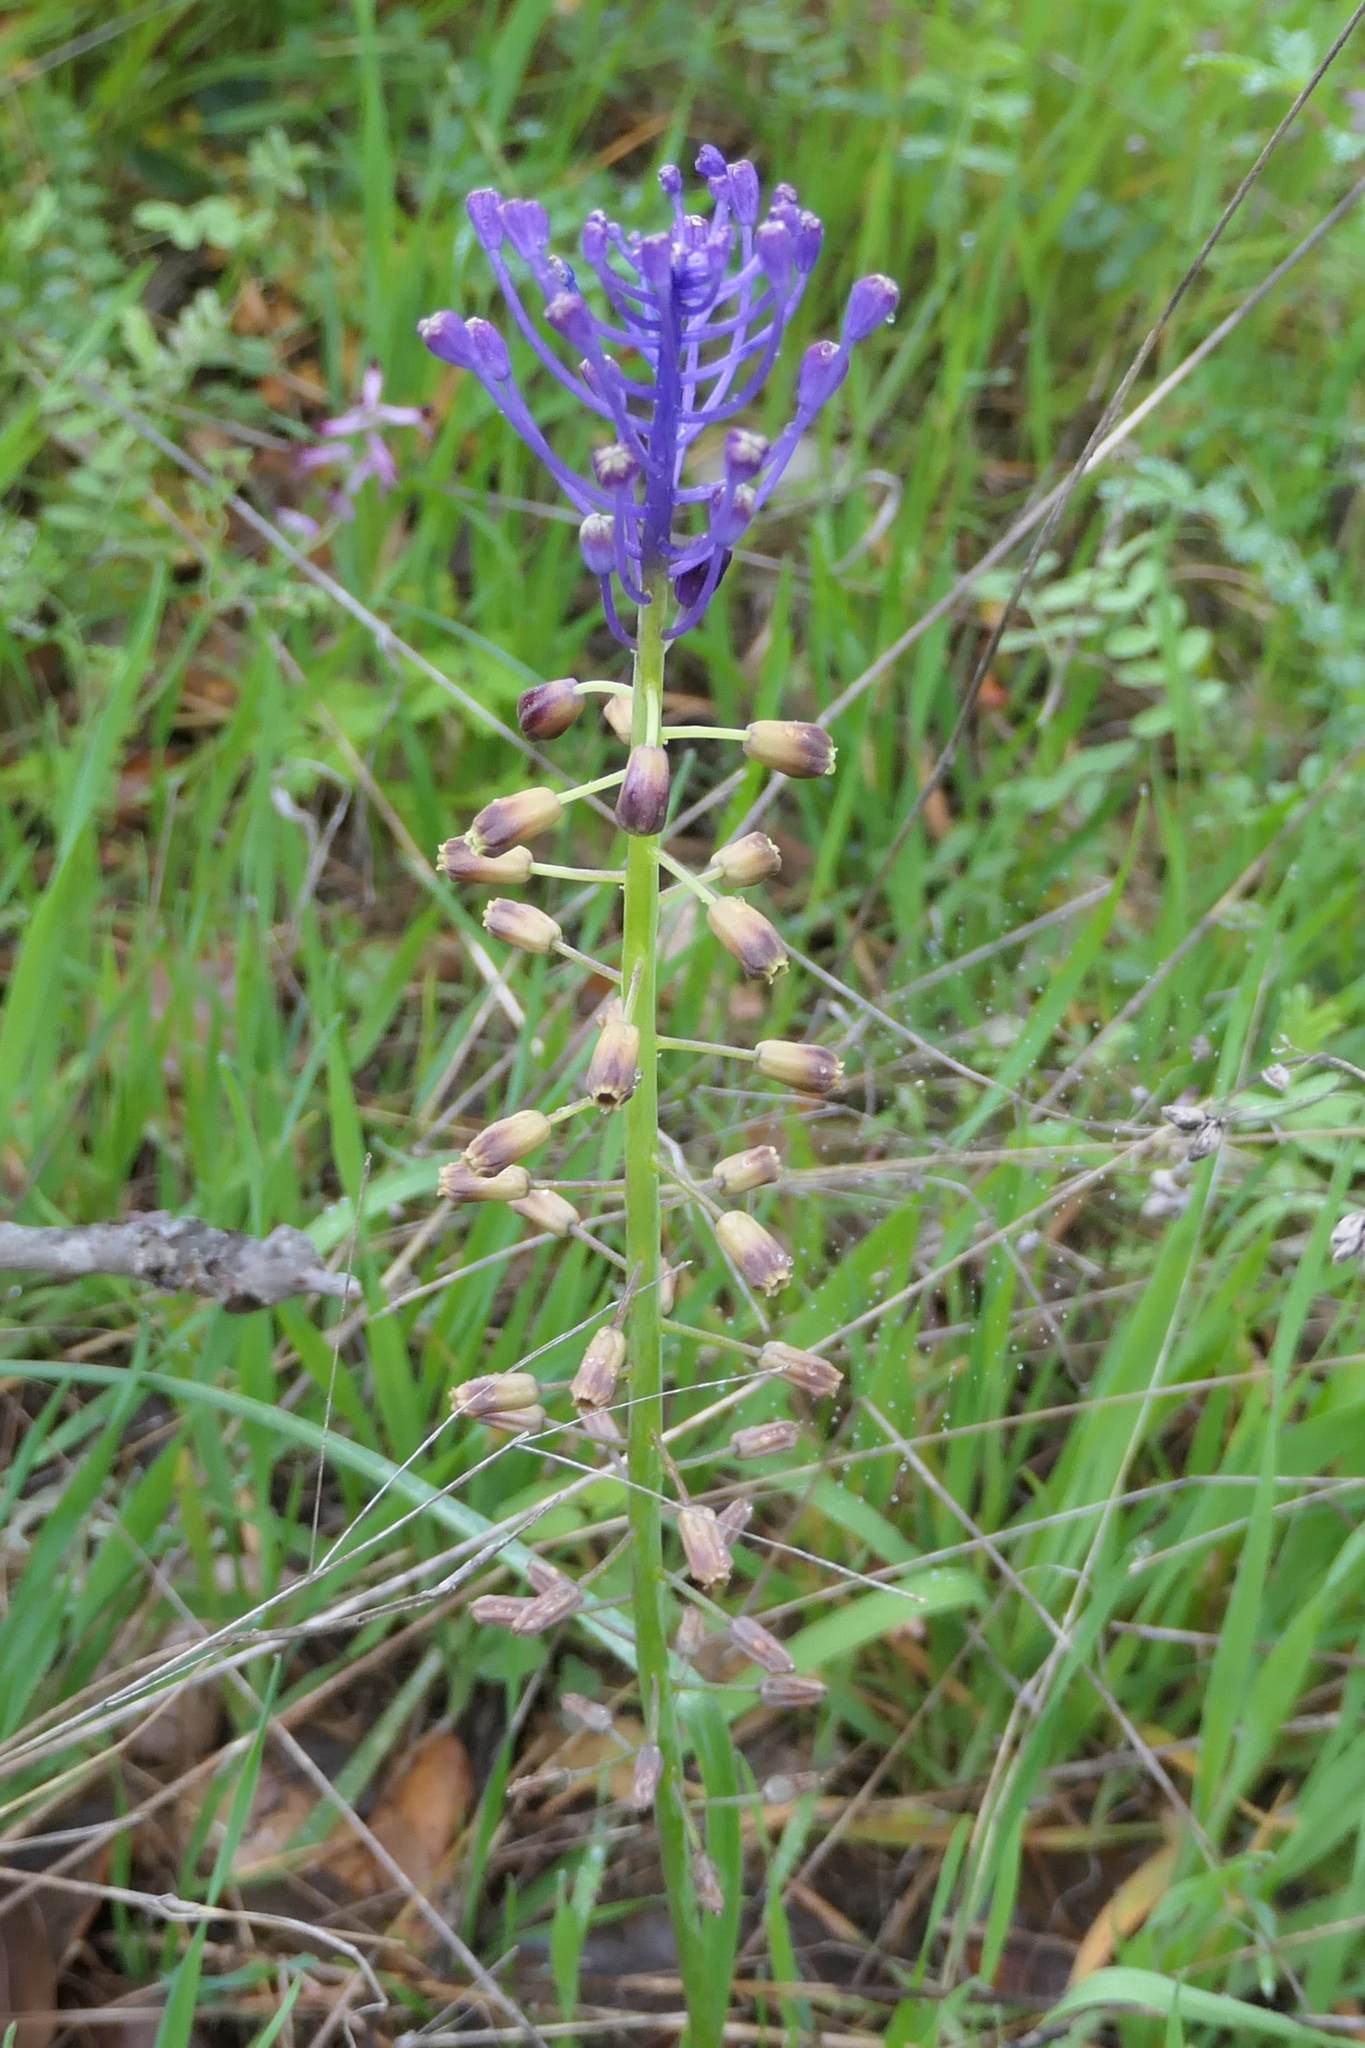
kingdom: Plantae
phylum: Tracheophyta
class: Liliopsida
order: Asparagales
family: Asparagaceae
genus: Muscari
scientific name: Muscari comosum
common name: Tassel hyacinth
